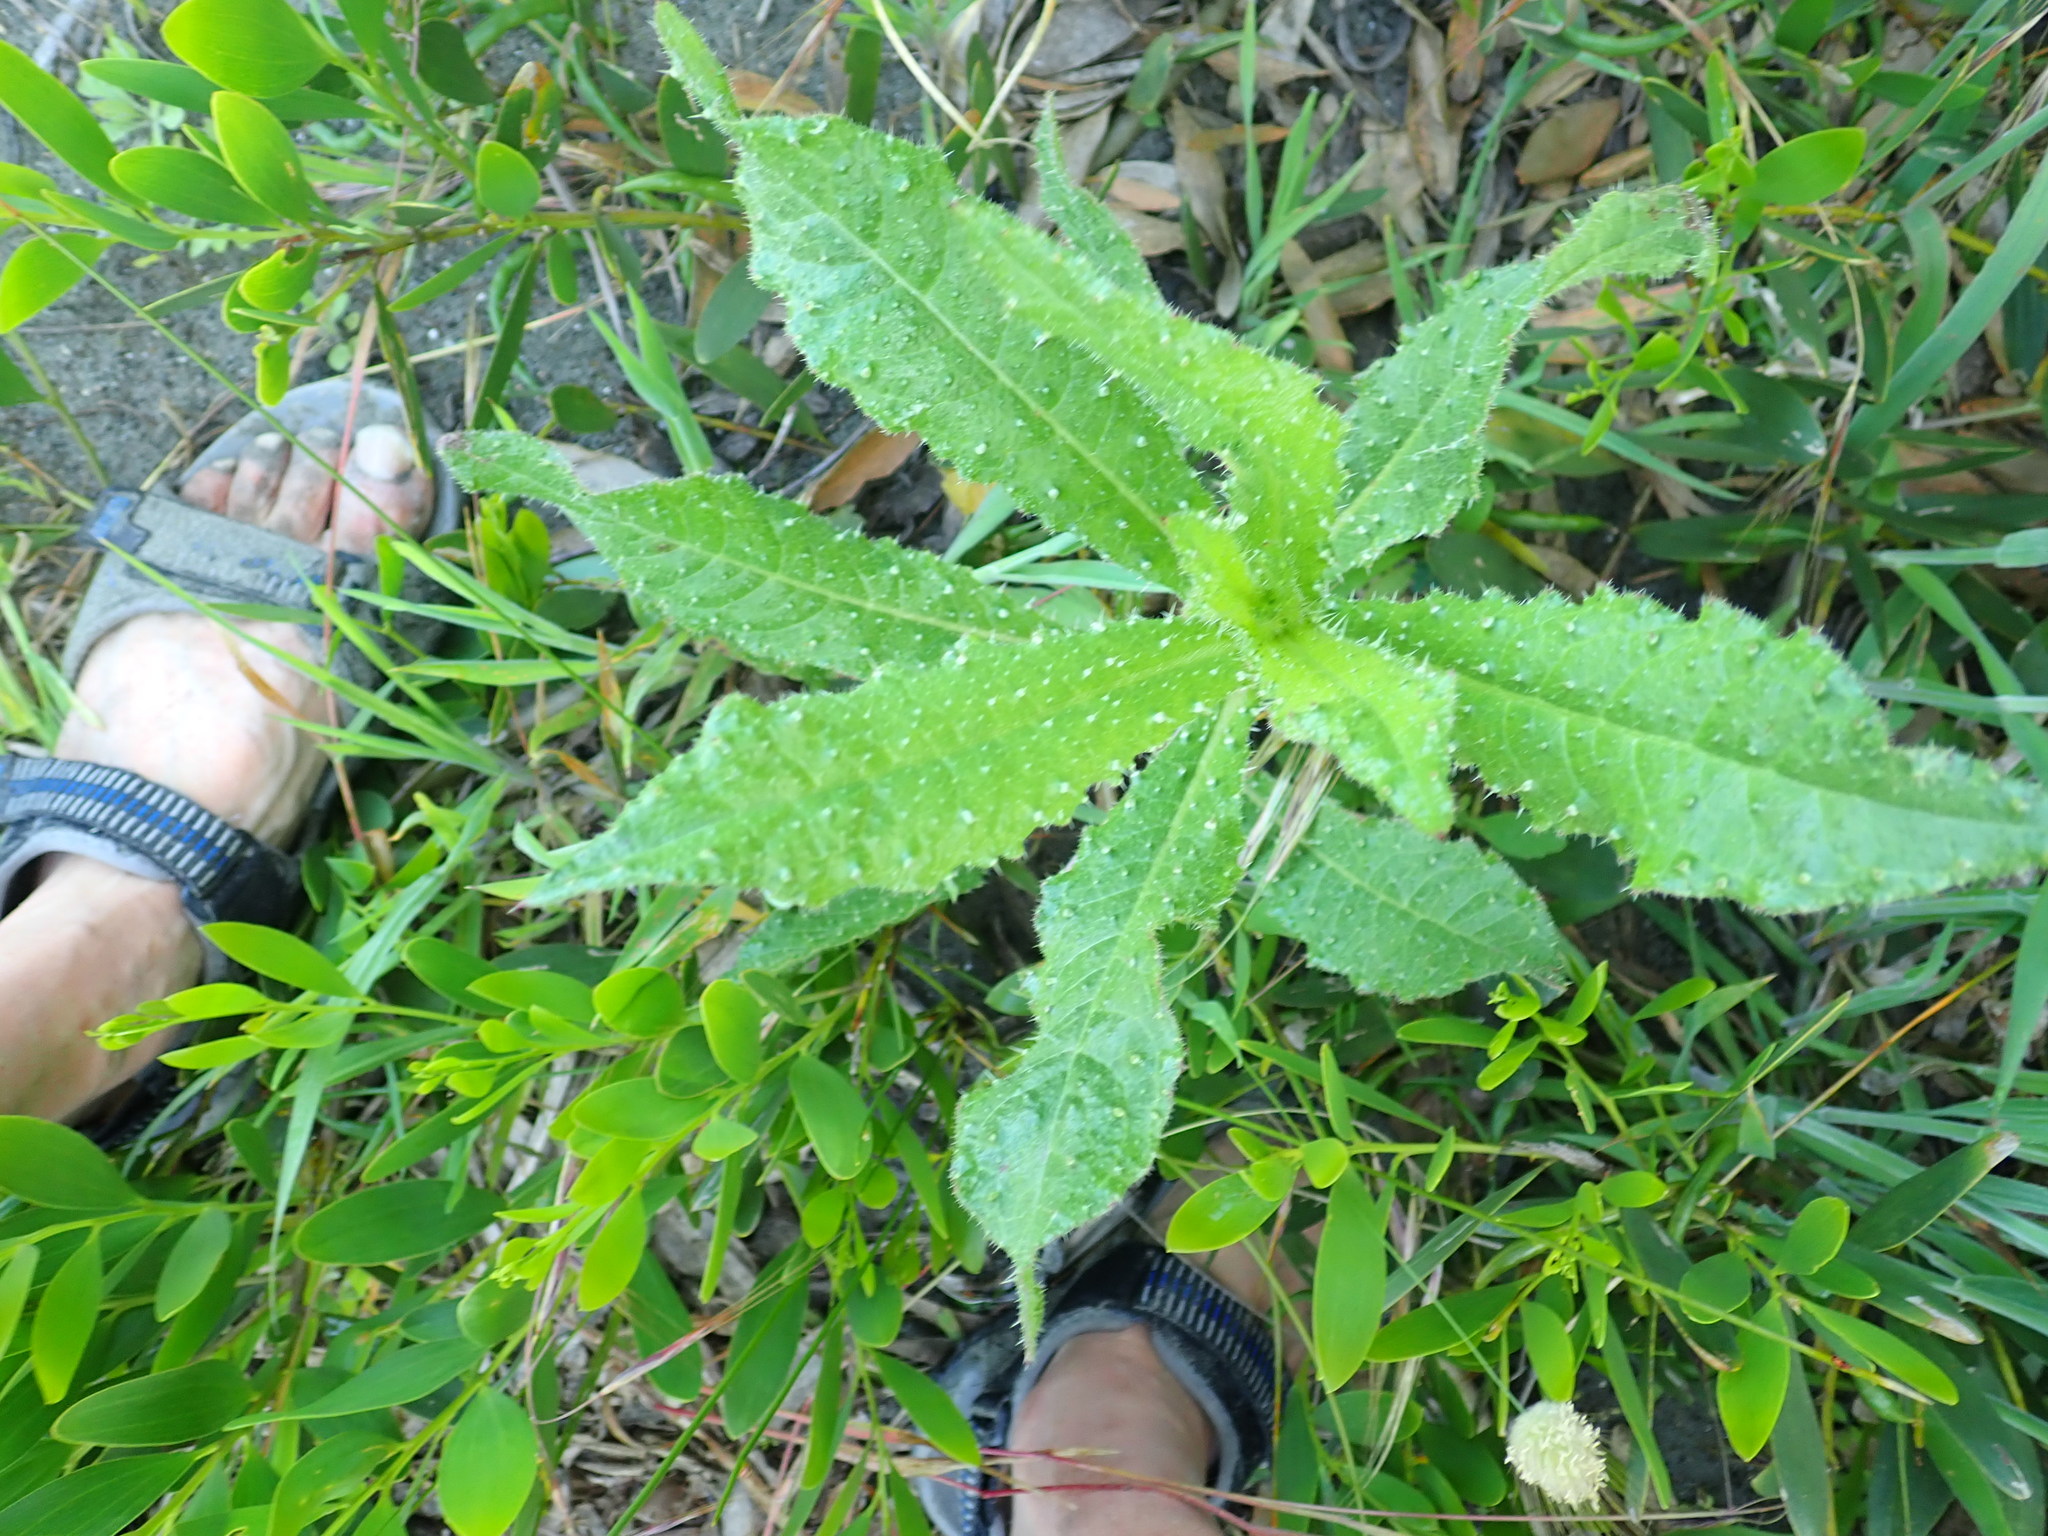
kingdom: Plantae
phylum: Tracheophyta
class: Magnoliopsida
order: Asterales
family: Asteraceae
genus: Helminthotheca
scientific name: Helminthotheca echioides
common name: Ox-tongue
